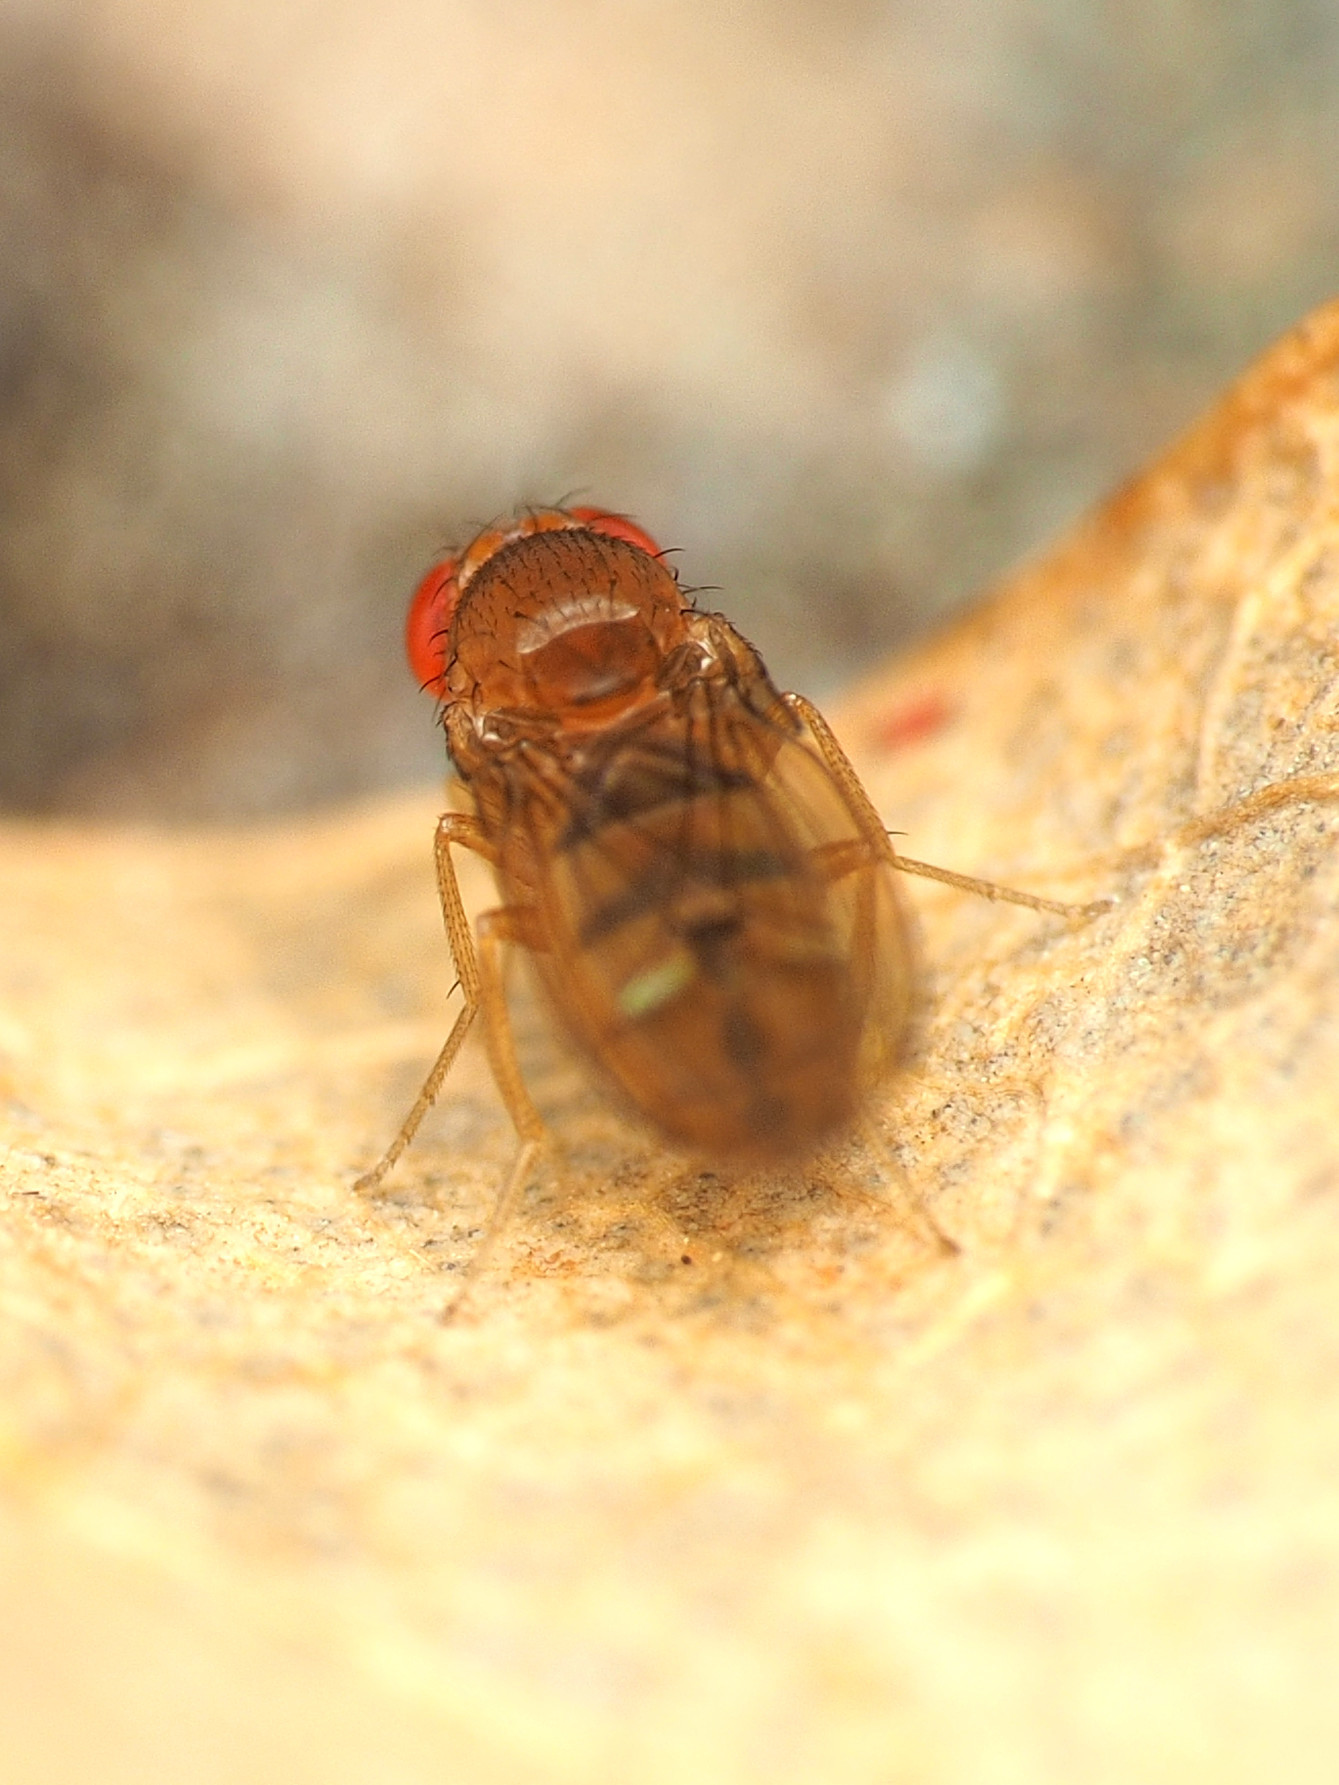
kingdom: Animalia
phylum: Arthropoda
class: Insecta
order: Diptera
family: Drosophilidae
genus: Drosophila
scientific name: Drosophila tripunctata
